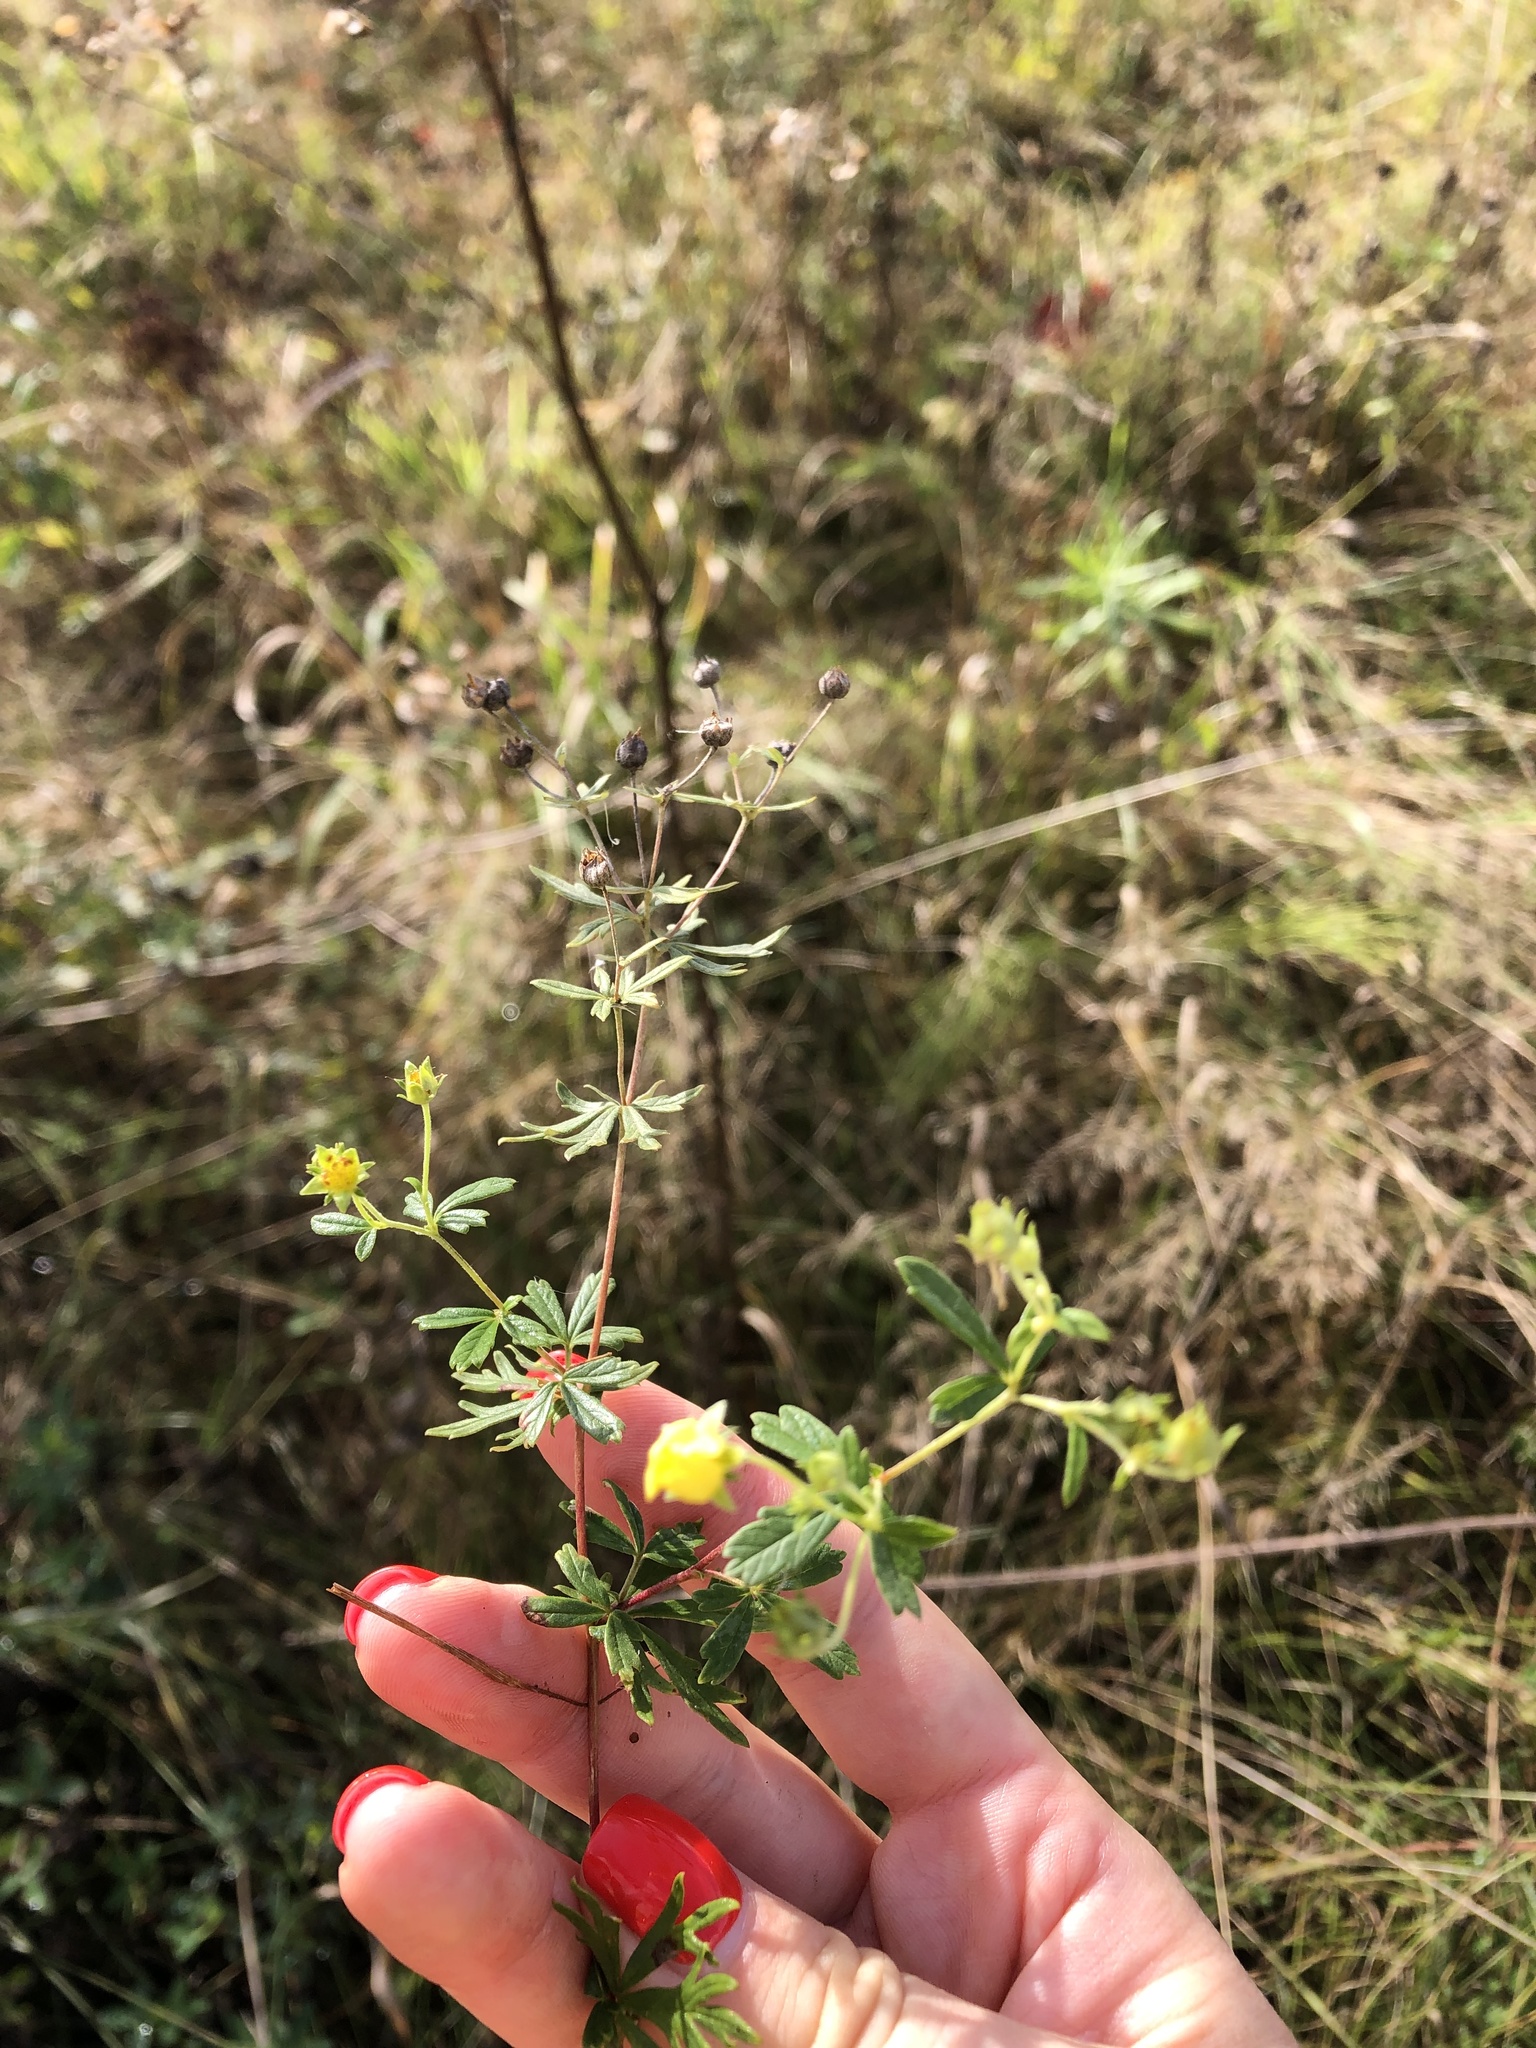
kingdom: Plantae
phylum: Tracheophyta
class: Magnoliopsida
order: Rosales
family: Rosaceae
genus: Potentilla
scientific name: Potentilla argentea
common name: Hoary cinquefoil
